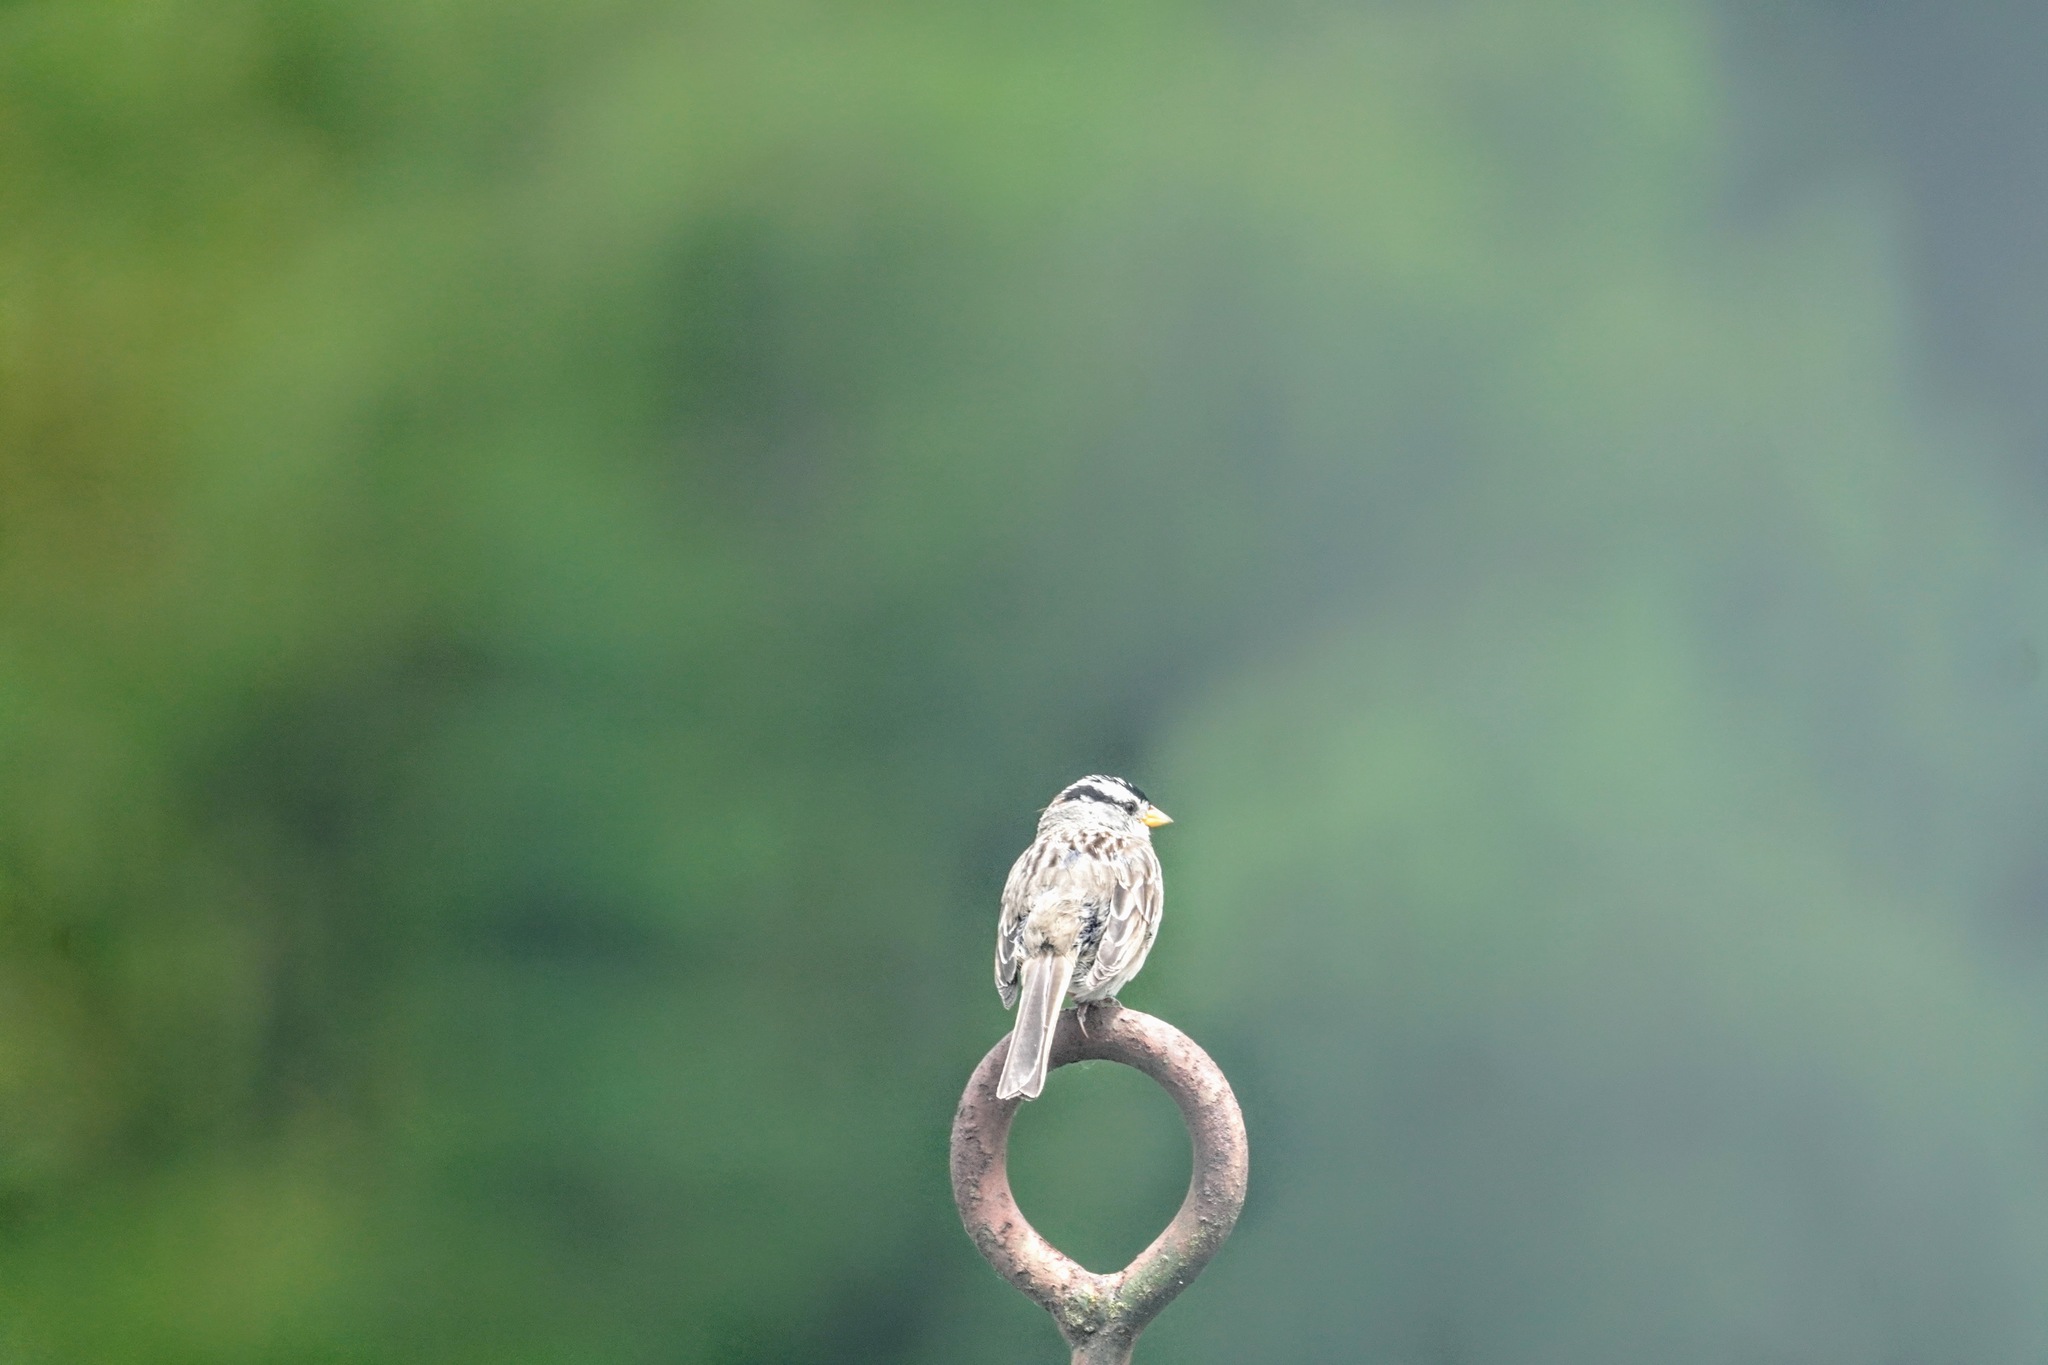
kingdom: Animalia
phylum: Chordata
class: Aves
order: Passeriformes
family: Passerellidae
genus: Zonotrichia
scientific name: Zonotrichia leucophrys
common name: White-crowned sparrow
